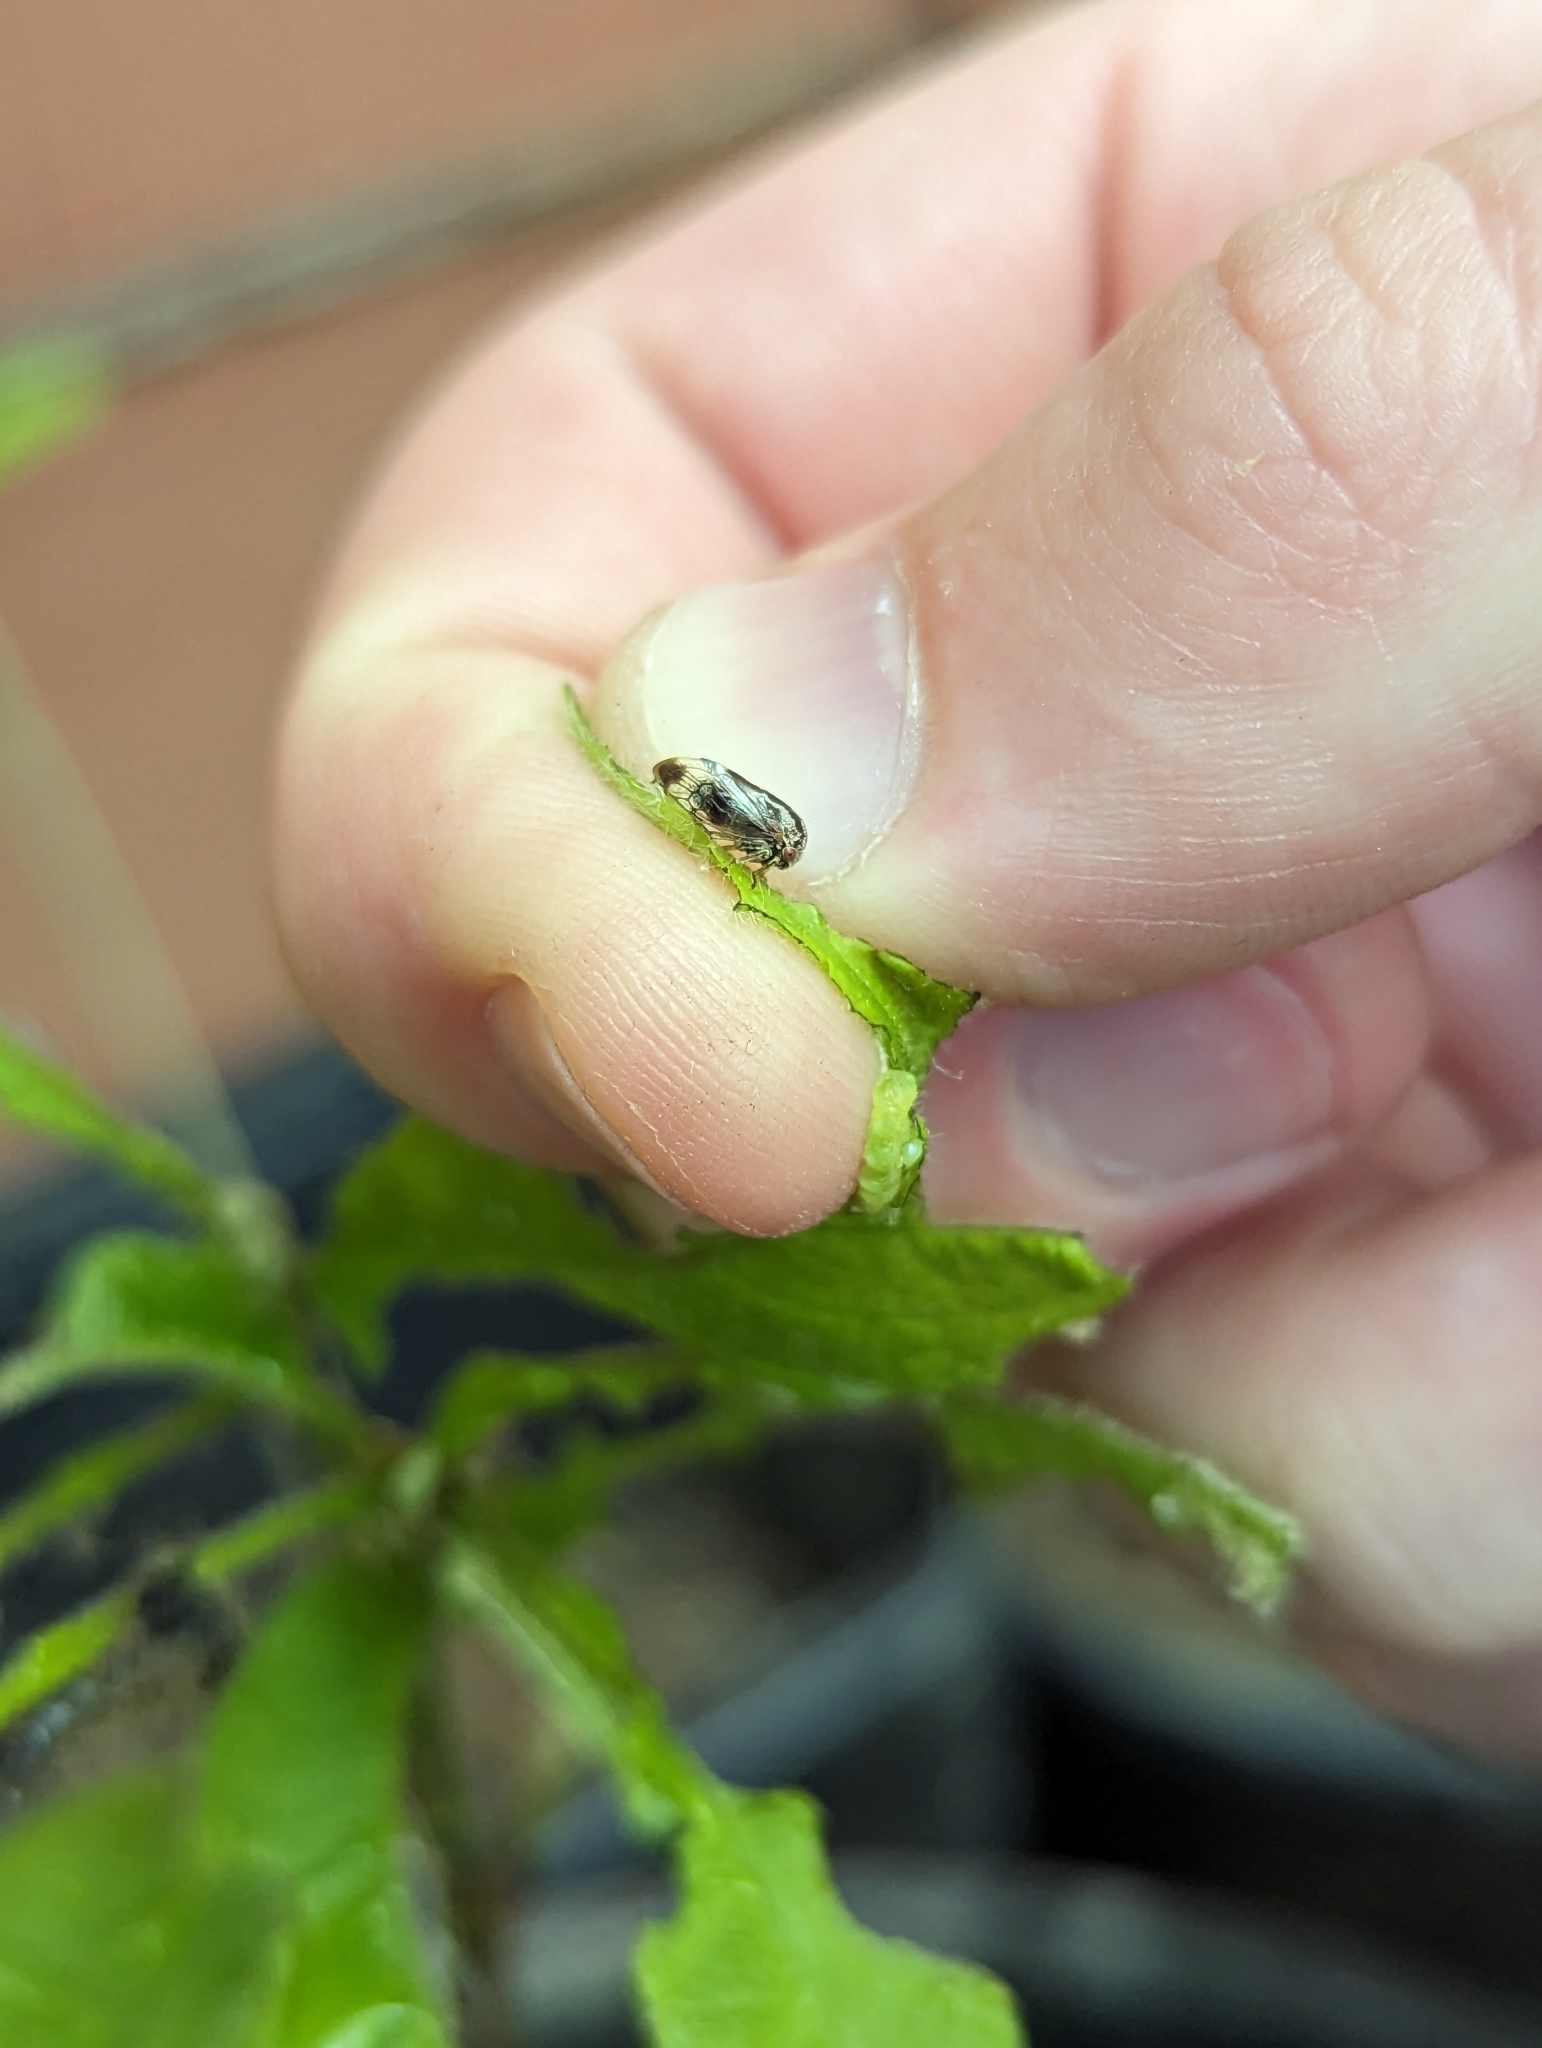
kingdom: Animalia
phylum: Arthropoda
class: Insecta
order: Hemiptera
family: Membracidae
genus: Vanduzea
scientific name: Vanduzea arquata
